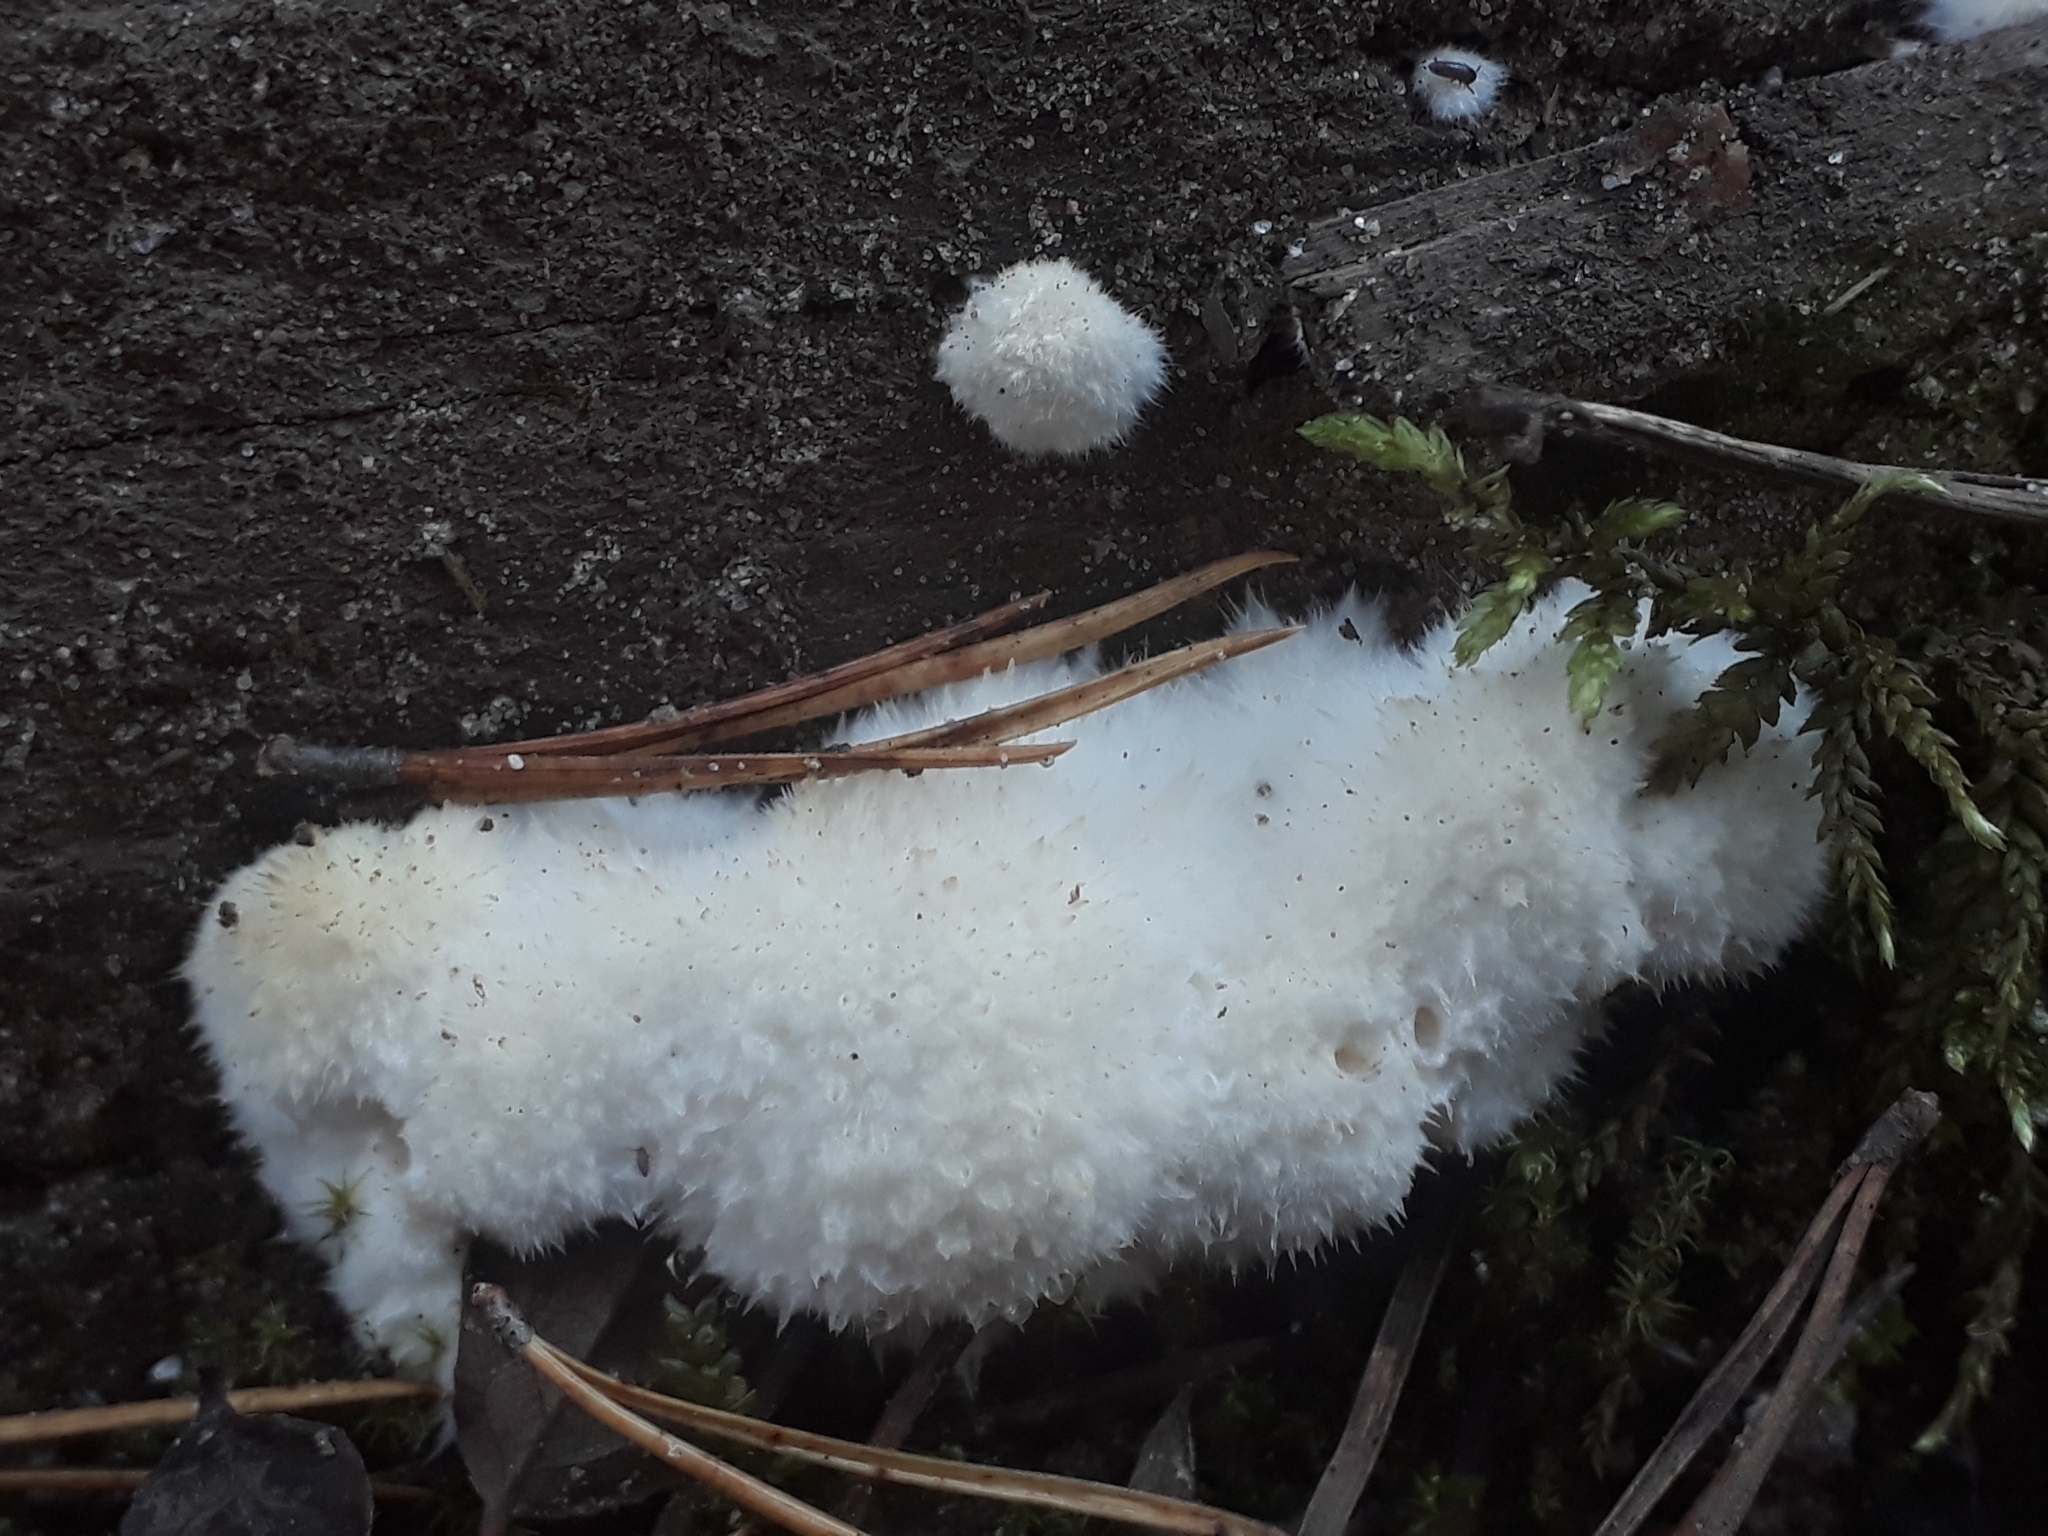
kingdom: Fungi
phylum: Basidiomycota
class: Agaricomycetes
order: Polyporales
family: Dacryobolaceae
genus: Postia
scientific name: Postia ptychogaster
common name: Powderpuff bracket
